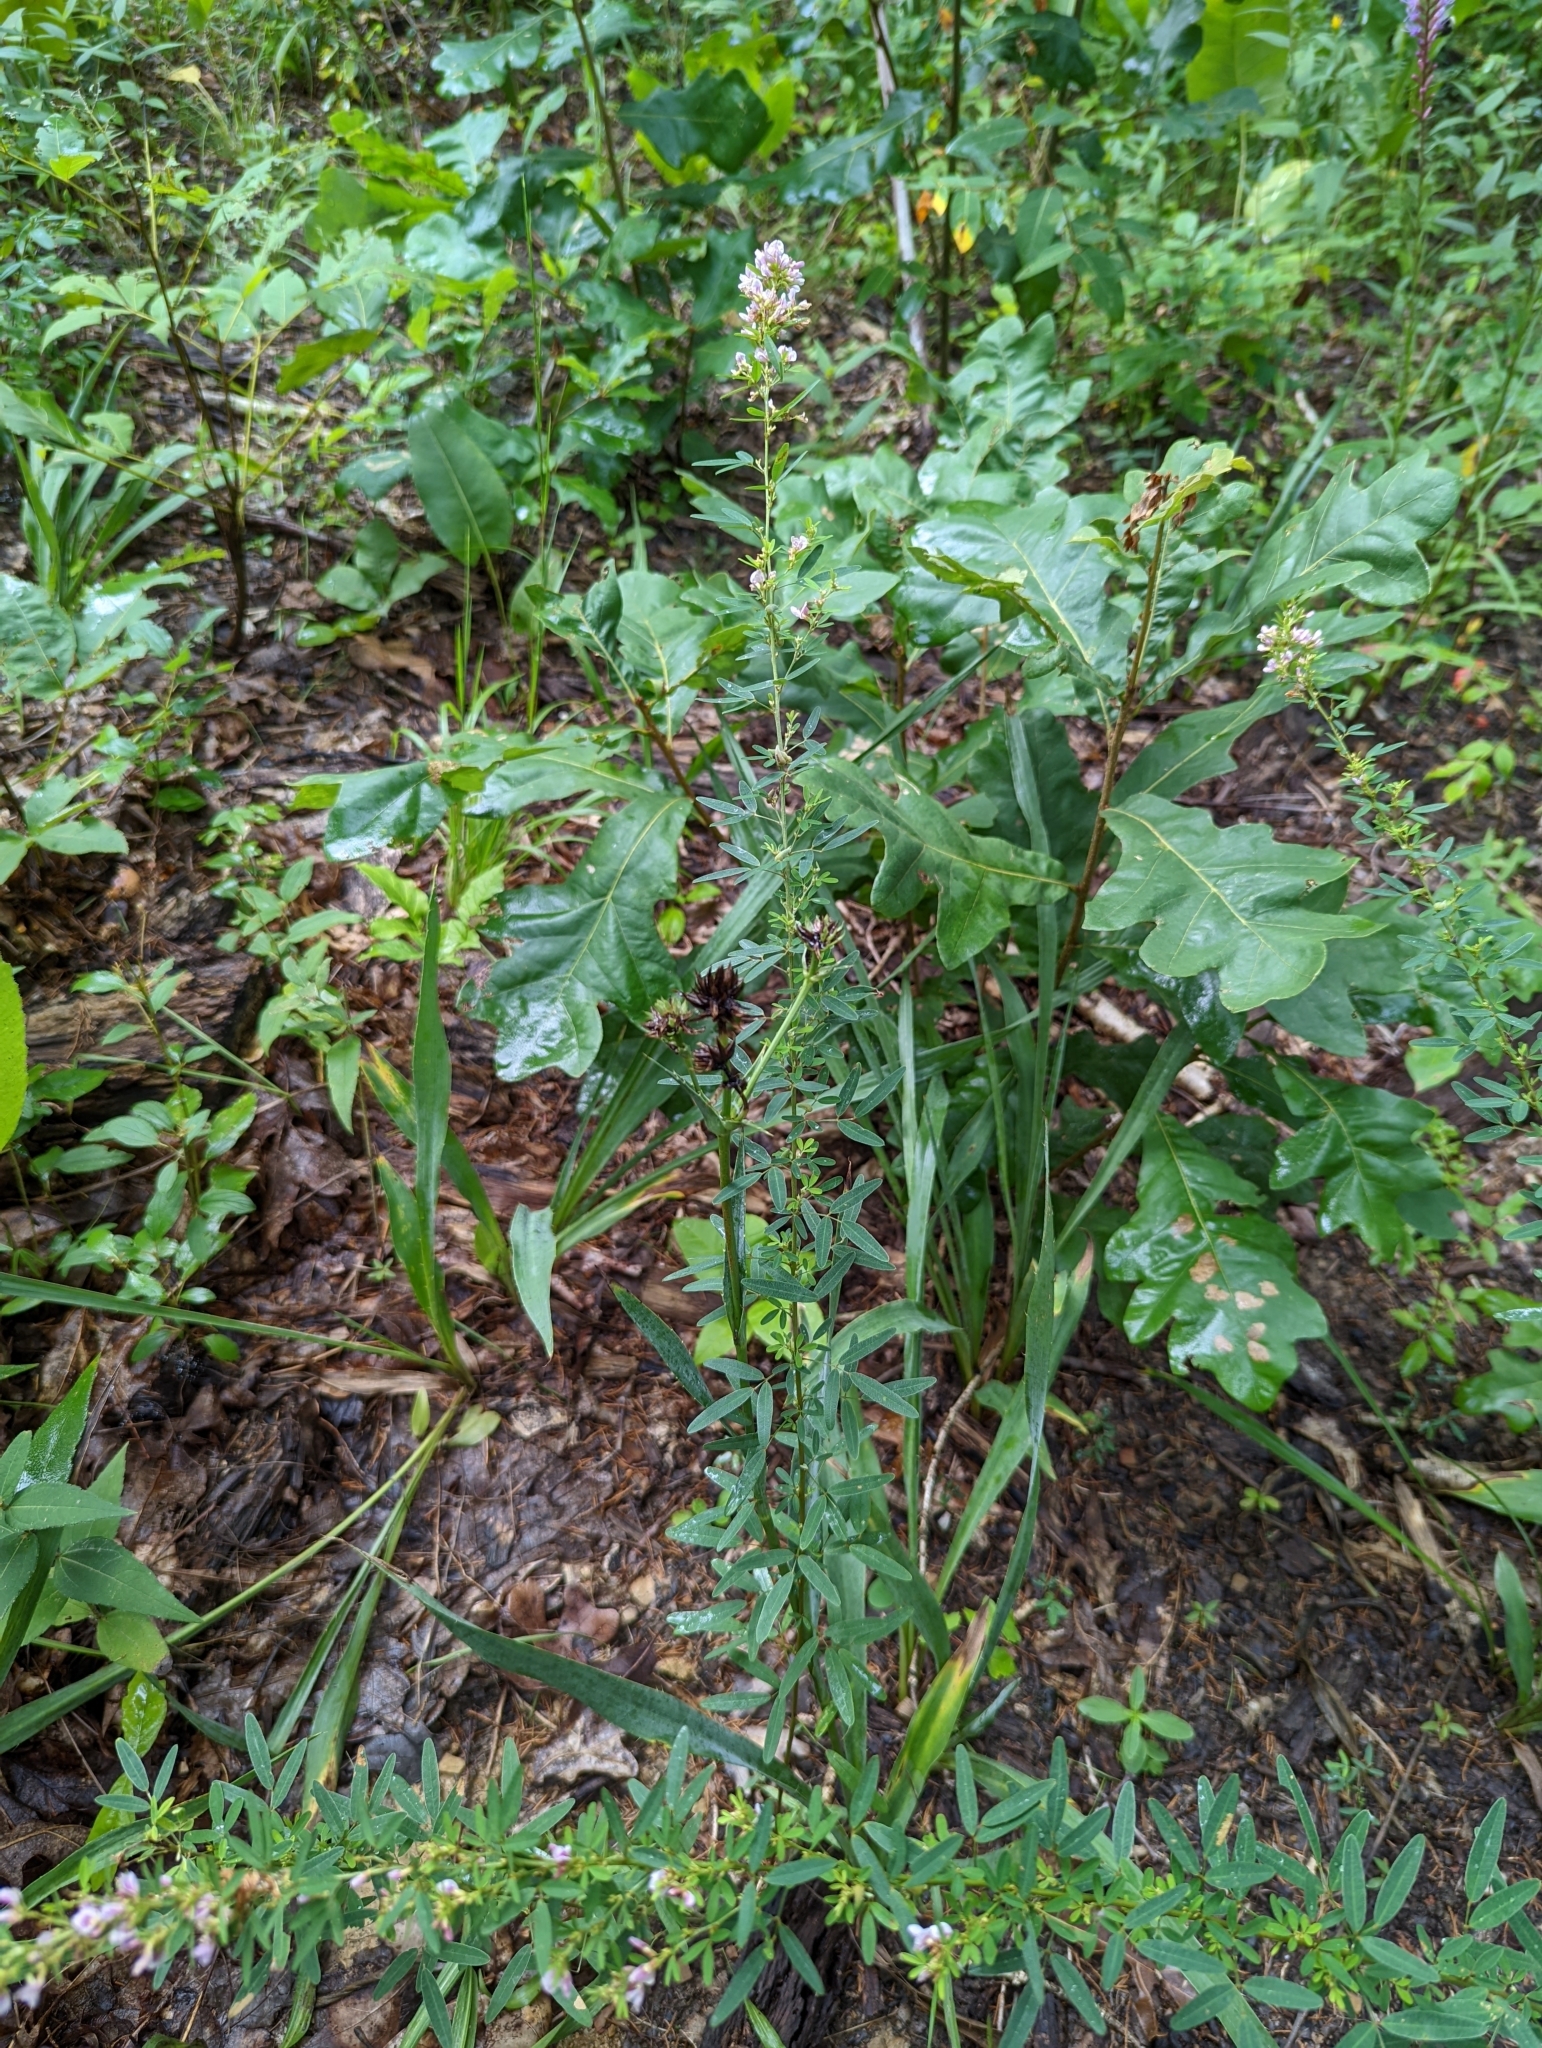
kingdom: Plantae
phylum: Tracheophyta
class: Magnoliopsida
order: Fabales
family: Fabaceae
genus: Lespedeza
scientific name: Lespedeza virginica
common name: Slender bush-clover
